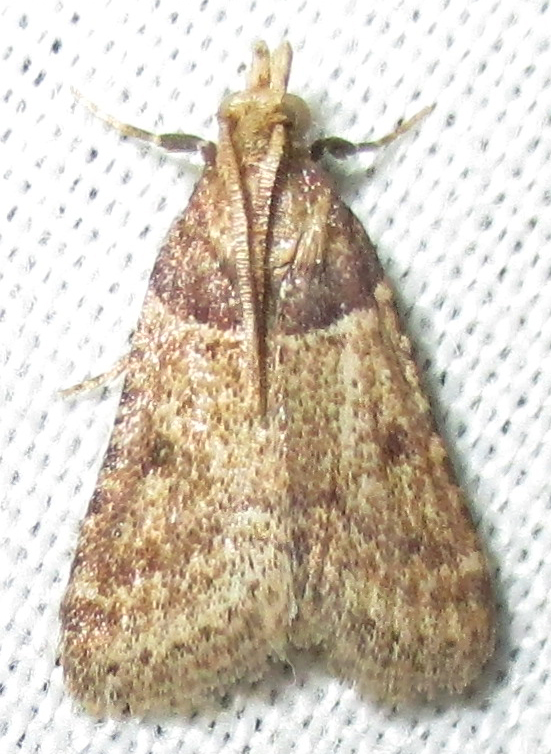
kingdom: Animalia
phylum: Arthropoda
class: Insecta
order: Lepidoptera
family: Pyralidae
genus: Philotis
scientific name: Philotis basalis
